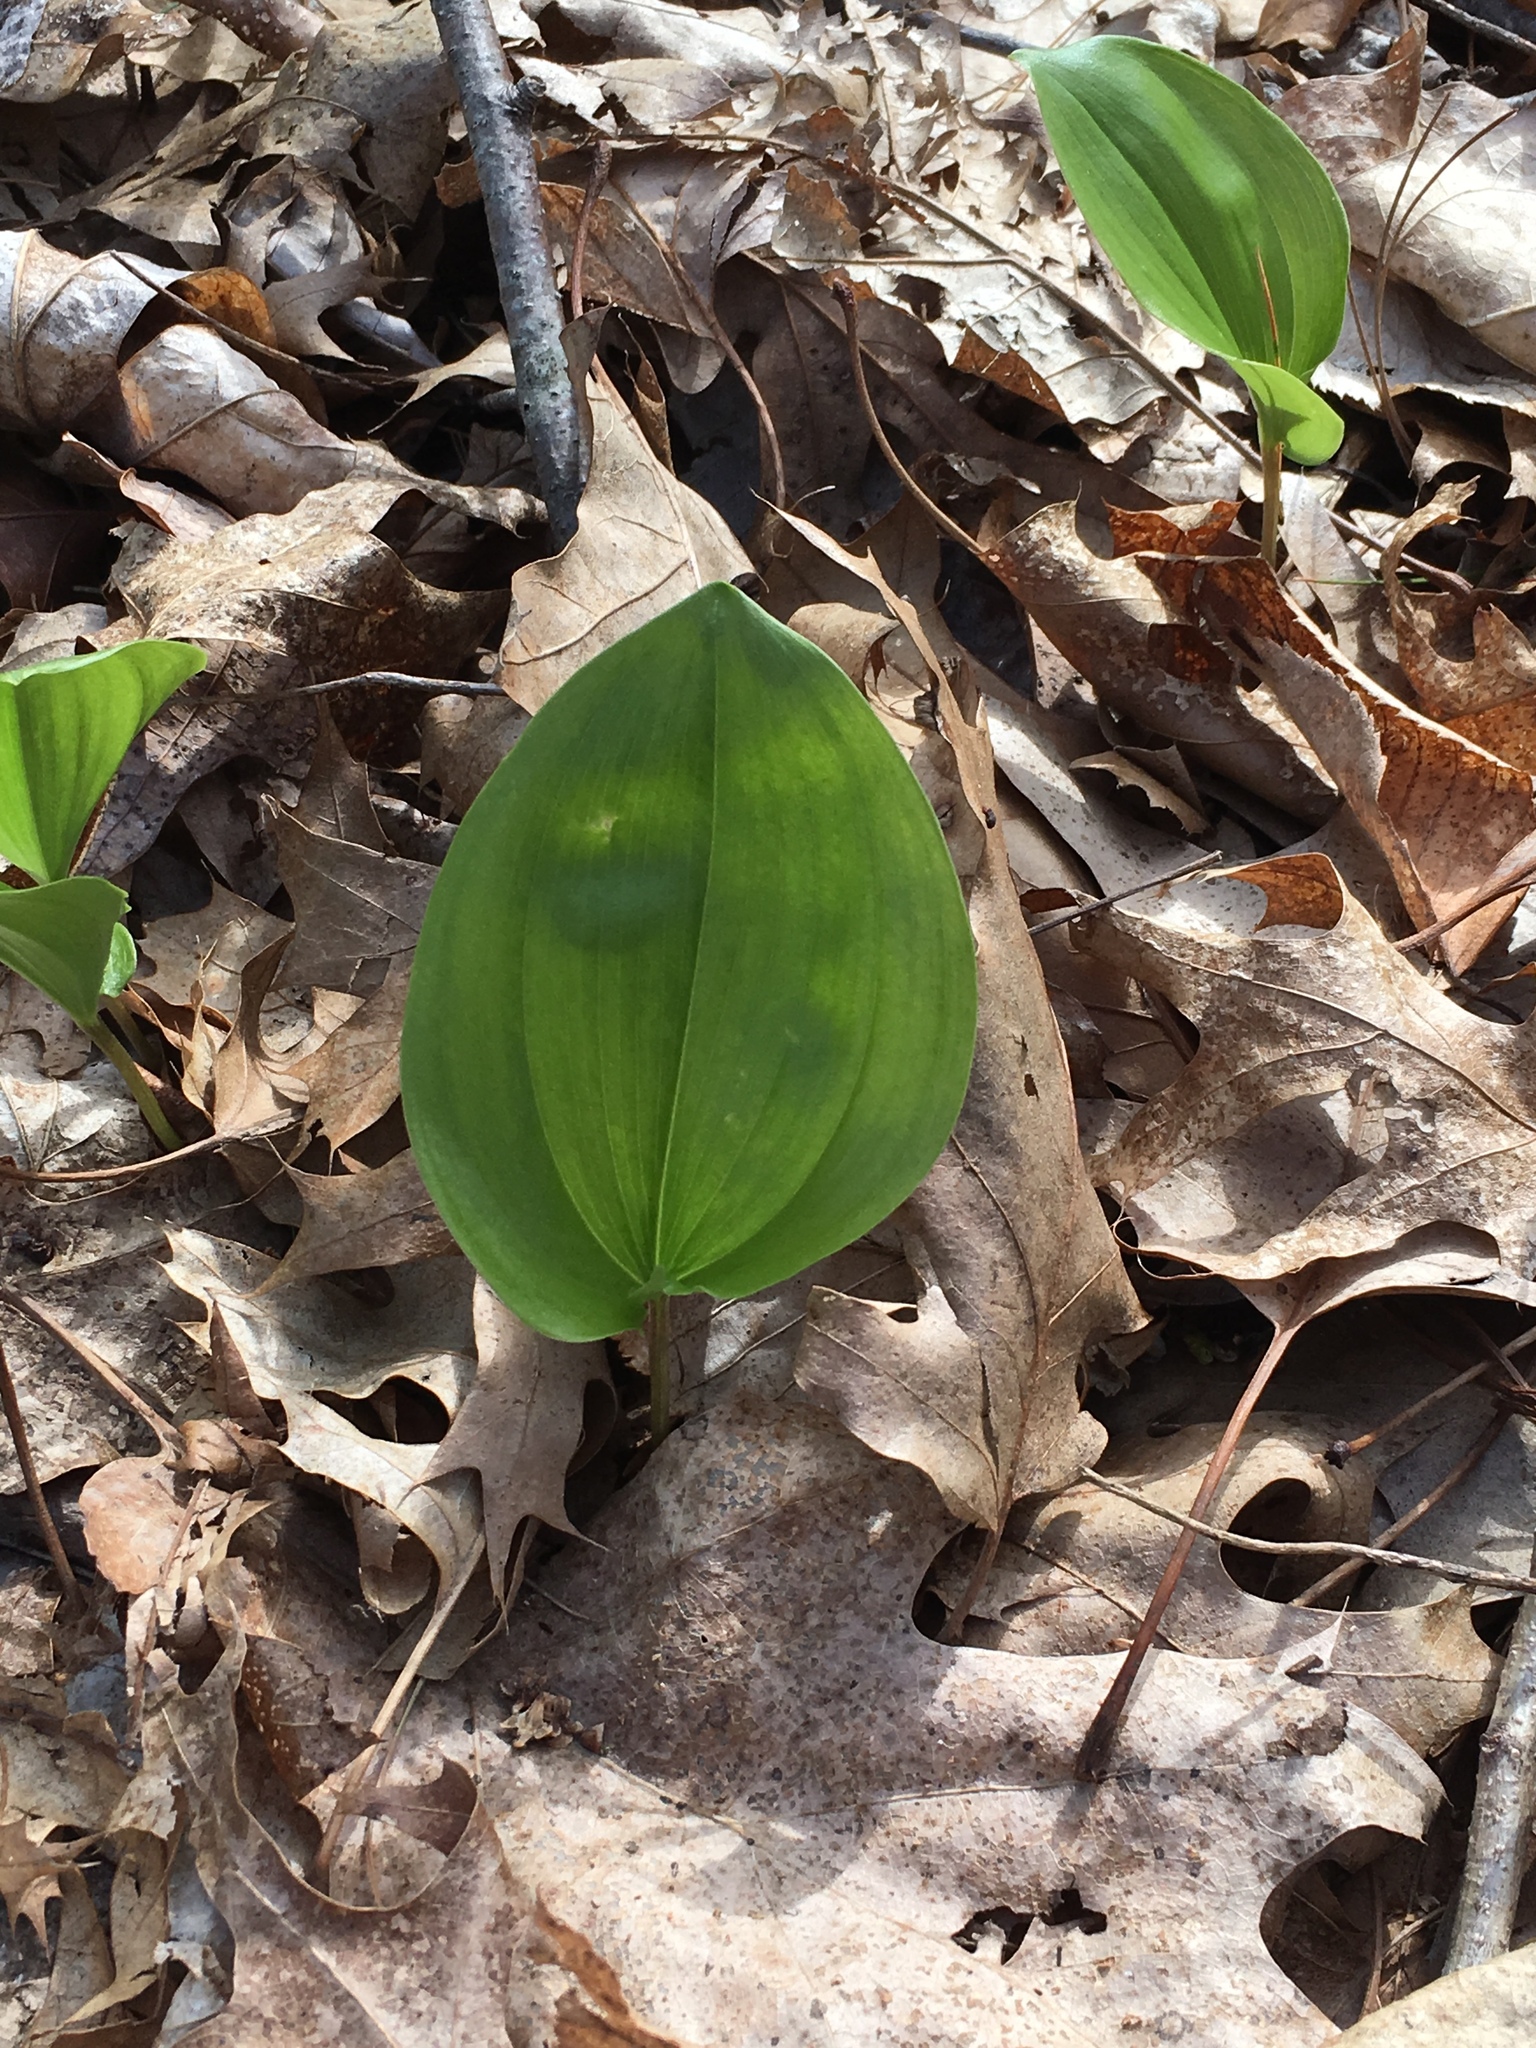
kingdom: Plantae
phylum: Tracheophyta
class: Liliopsida
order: Asparagales
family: Asparagaceae
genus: Maianthemum
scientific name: Maianthemum canadense
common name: False lily-of-the-valley
